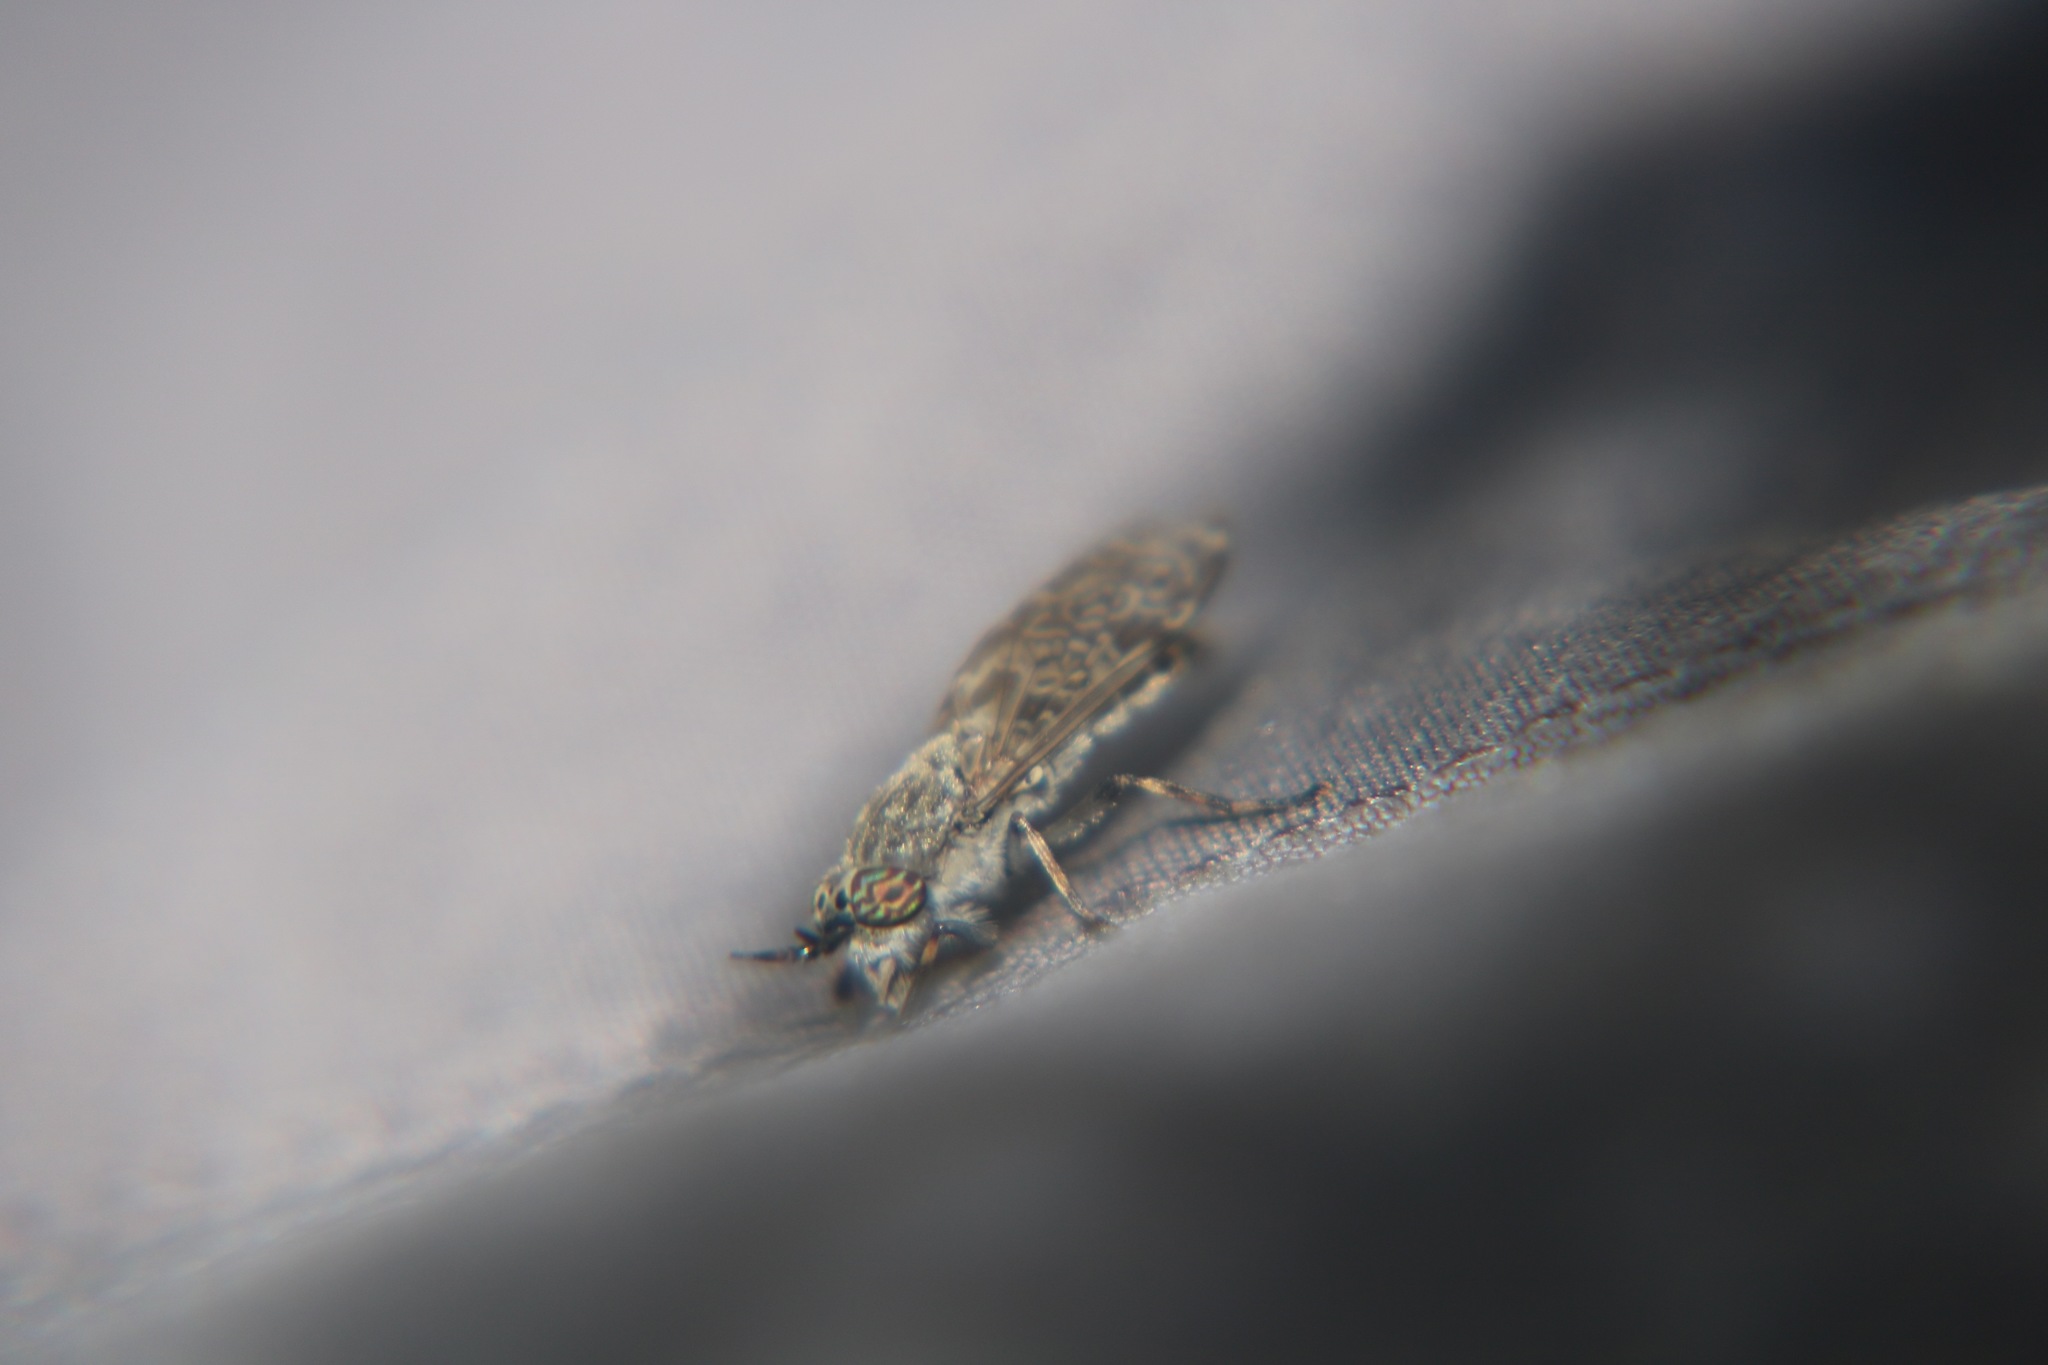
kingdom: Animalia
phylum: Arthropoda
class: Insecta
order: Diptera
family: Tabanidae
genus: Haematopota
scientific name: Haematopota pluvialis
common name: Common horse fly
